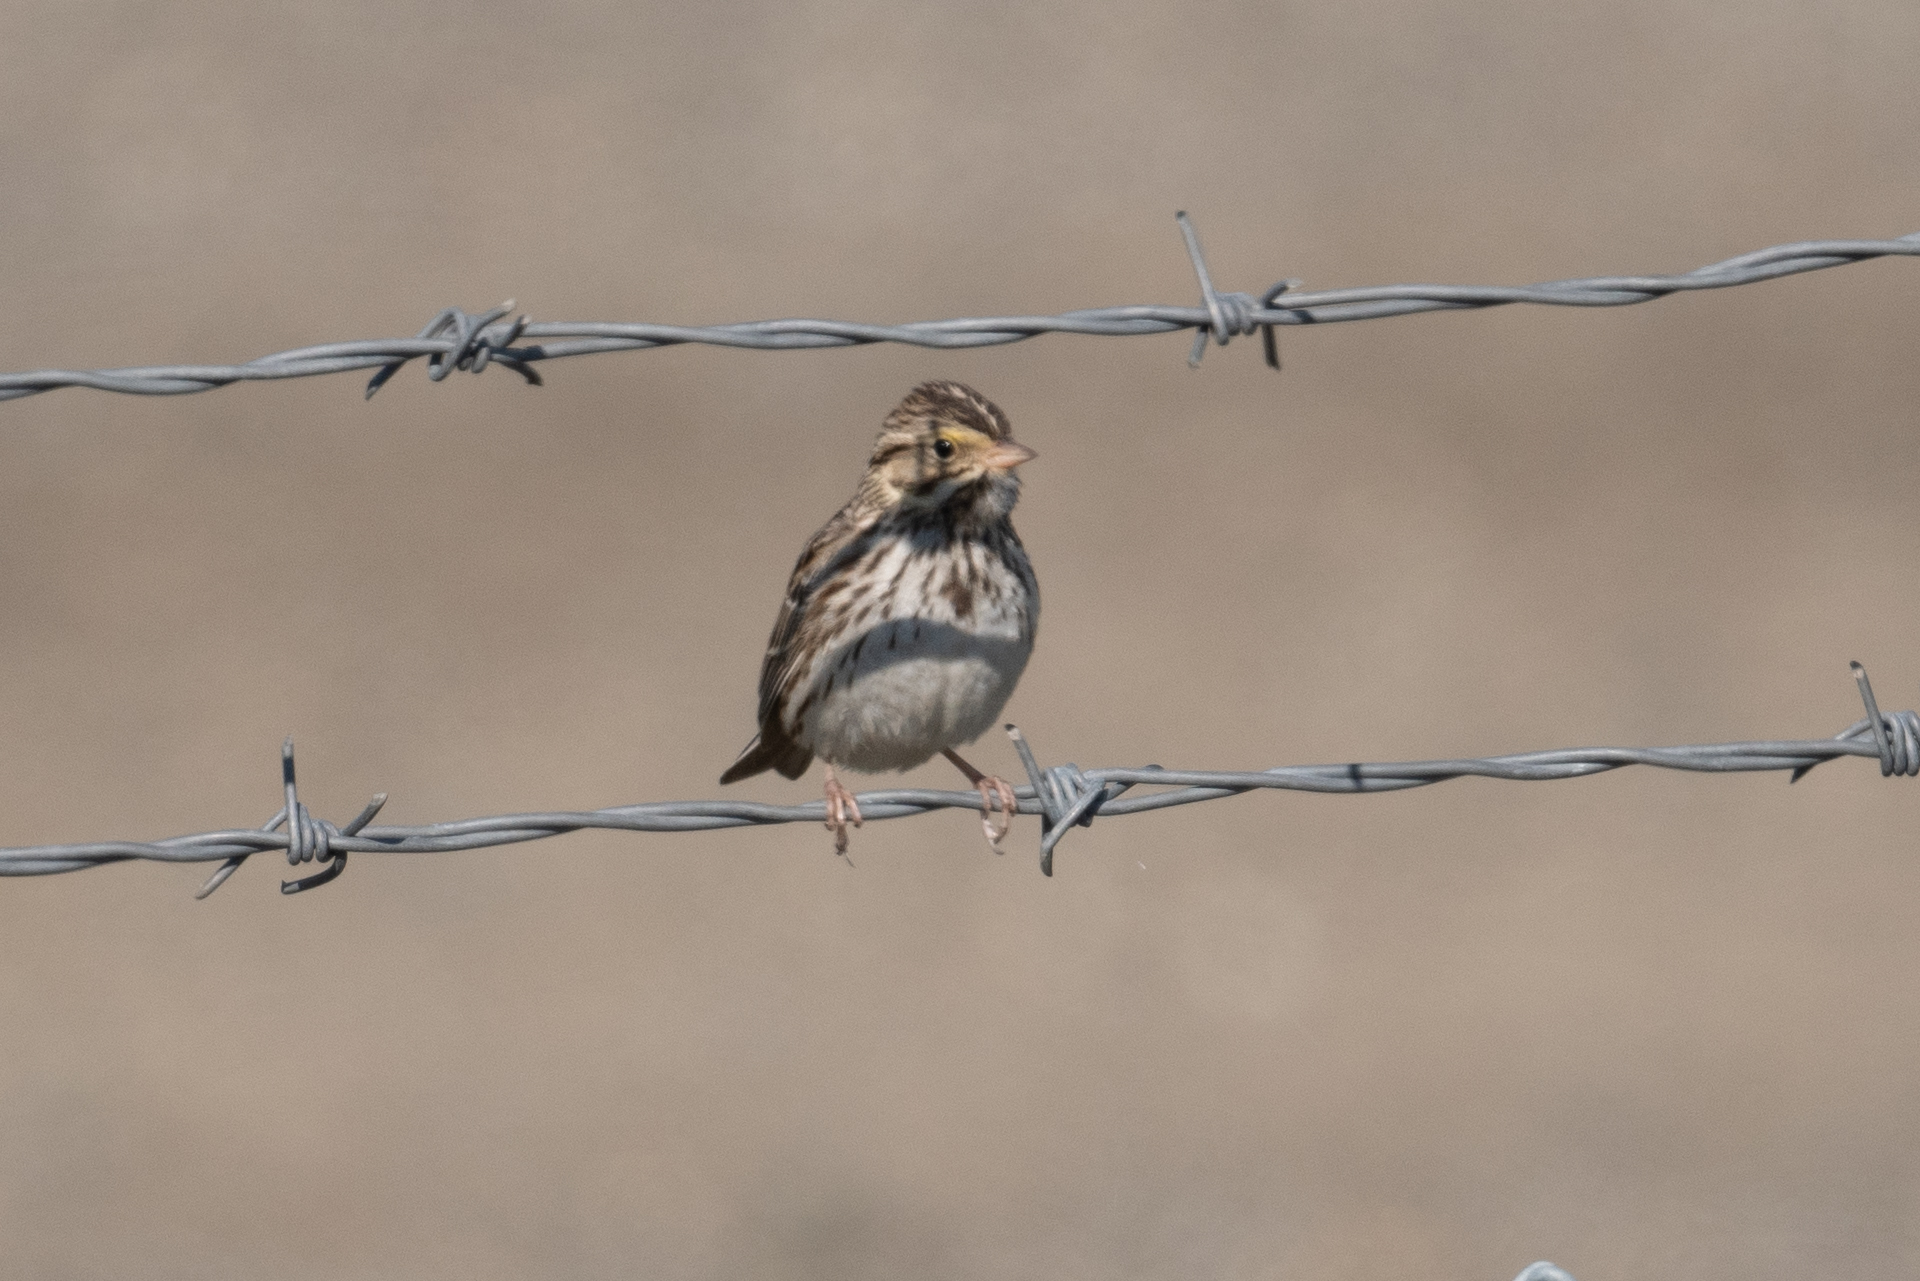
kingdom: Animalia
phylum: Chordata
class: Aves
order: Passeriformes
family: Passerellidae
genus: Passerculus
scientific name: Passerculus sandwichensis
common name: Savannah sparrow
